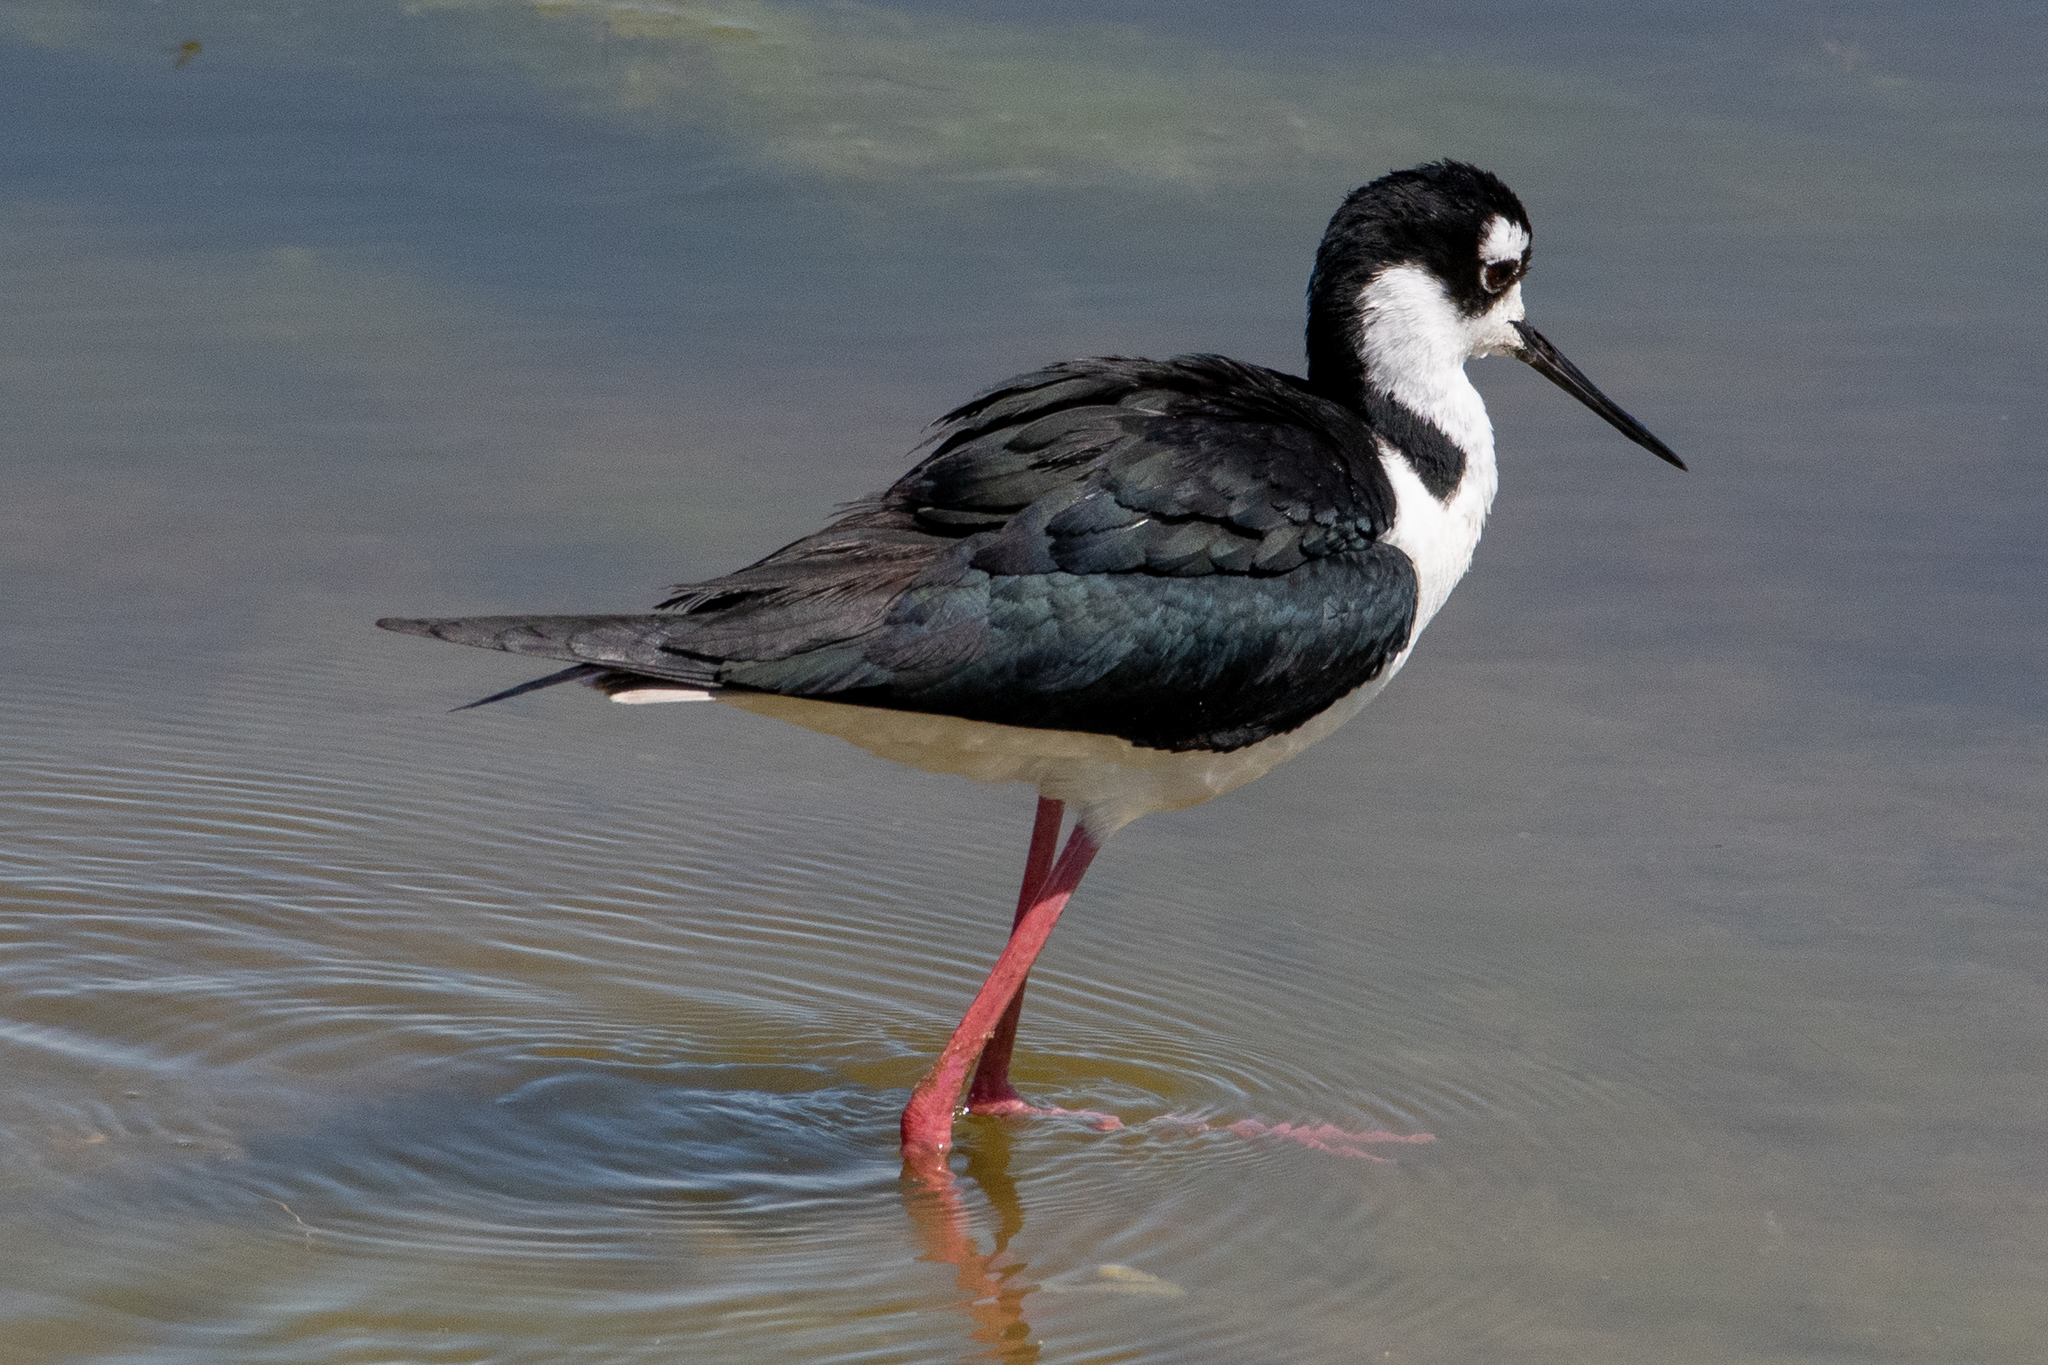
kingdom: Animalia
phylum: Chordata
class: Aves
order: Charadriiformes
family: Recurvirostridae
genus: Himantopus
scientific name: Himantopus mexicanus
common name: Black-necked stilt
